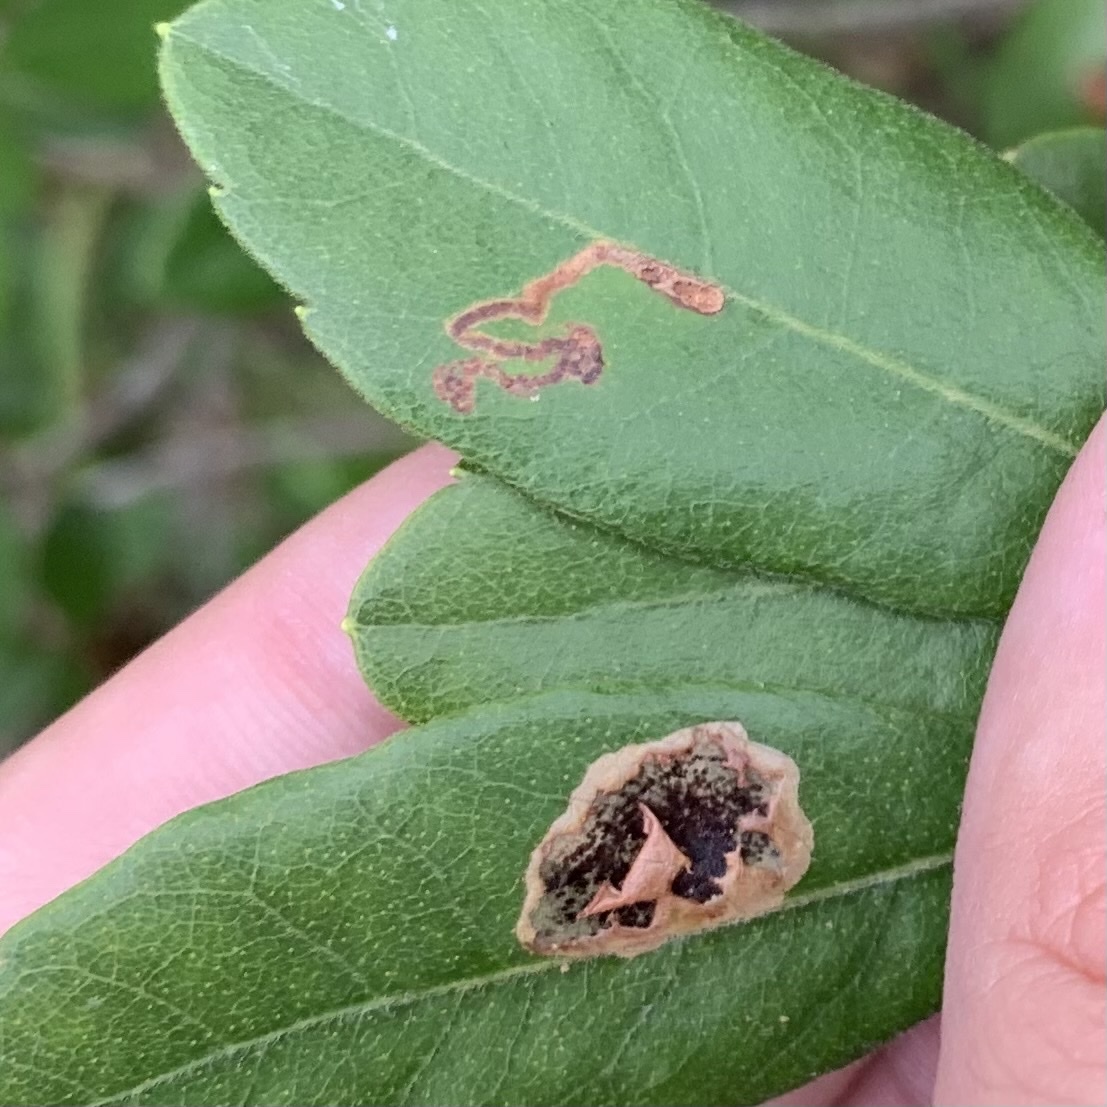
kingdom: Animalia
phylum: Arthropoda
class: Insecta
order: Lepidoptera
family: Gracillariidae
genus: Cameraria
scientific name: Cameraria picturatella
